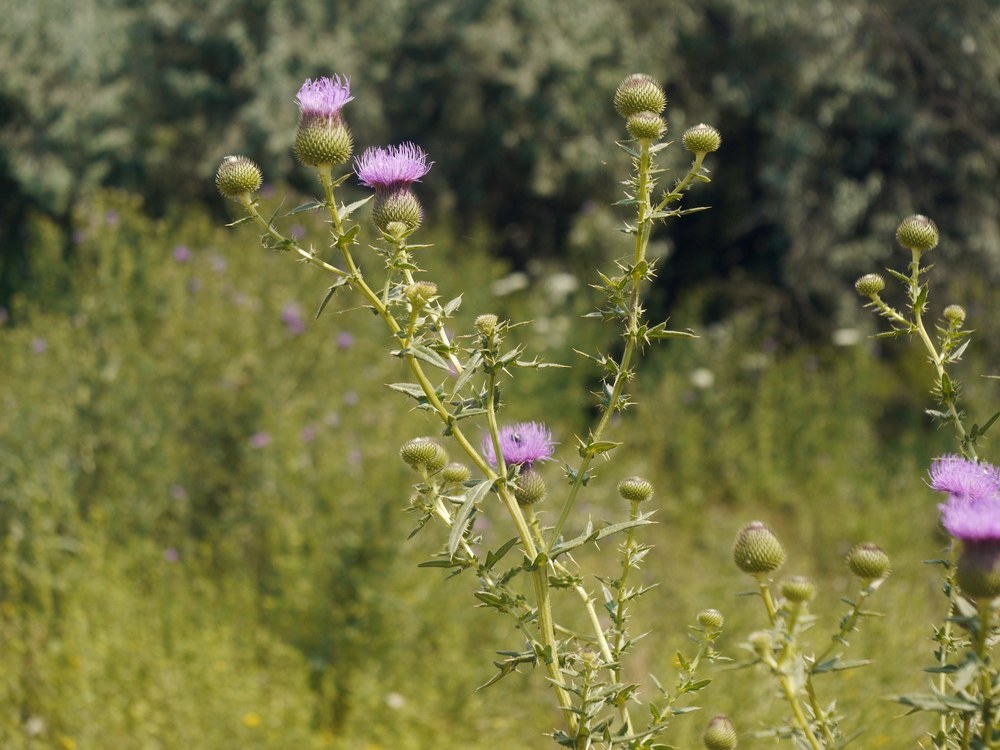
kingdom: Plantae
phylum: Tracheophyta
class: Magnoliopsida
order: Asterales
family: Asteraceae
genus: Lophiolepis
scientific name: Lophiolepis ukranica
